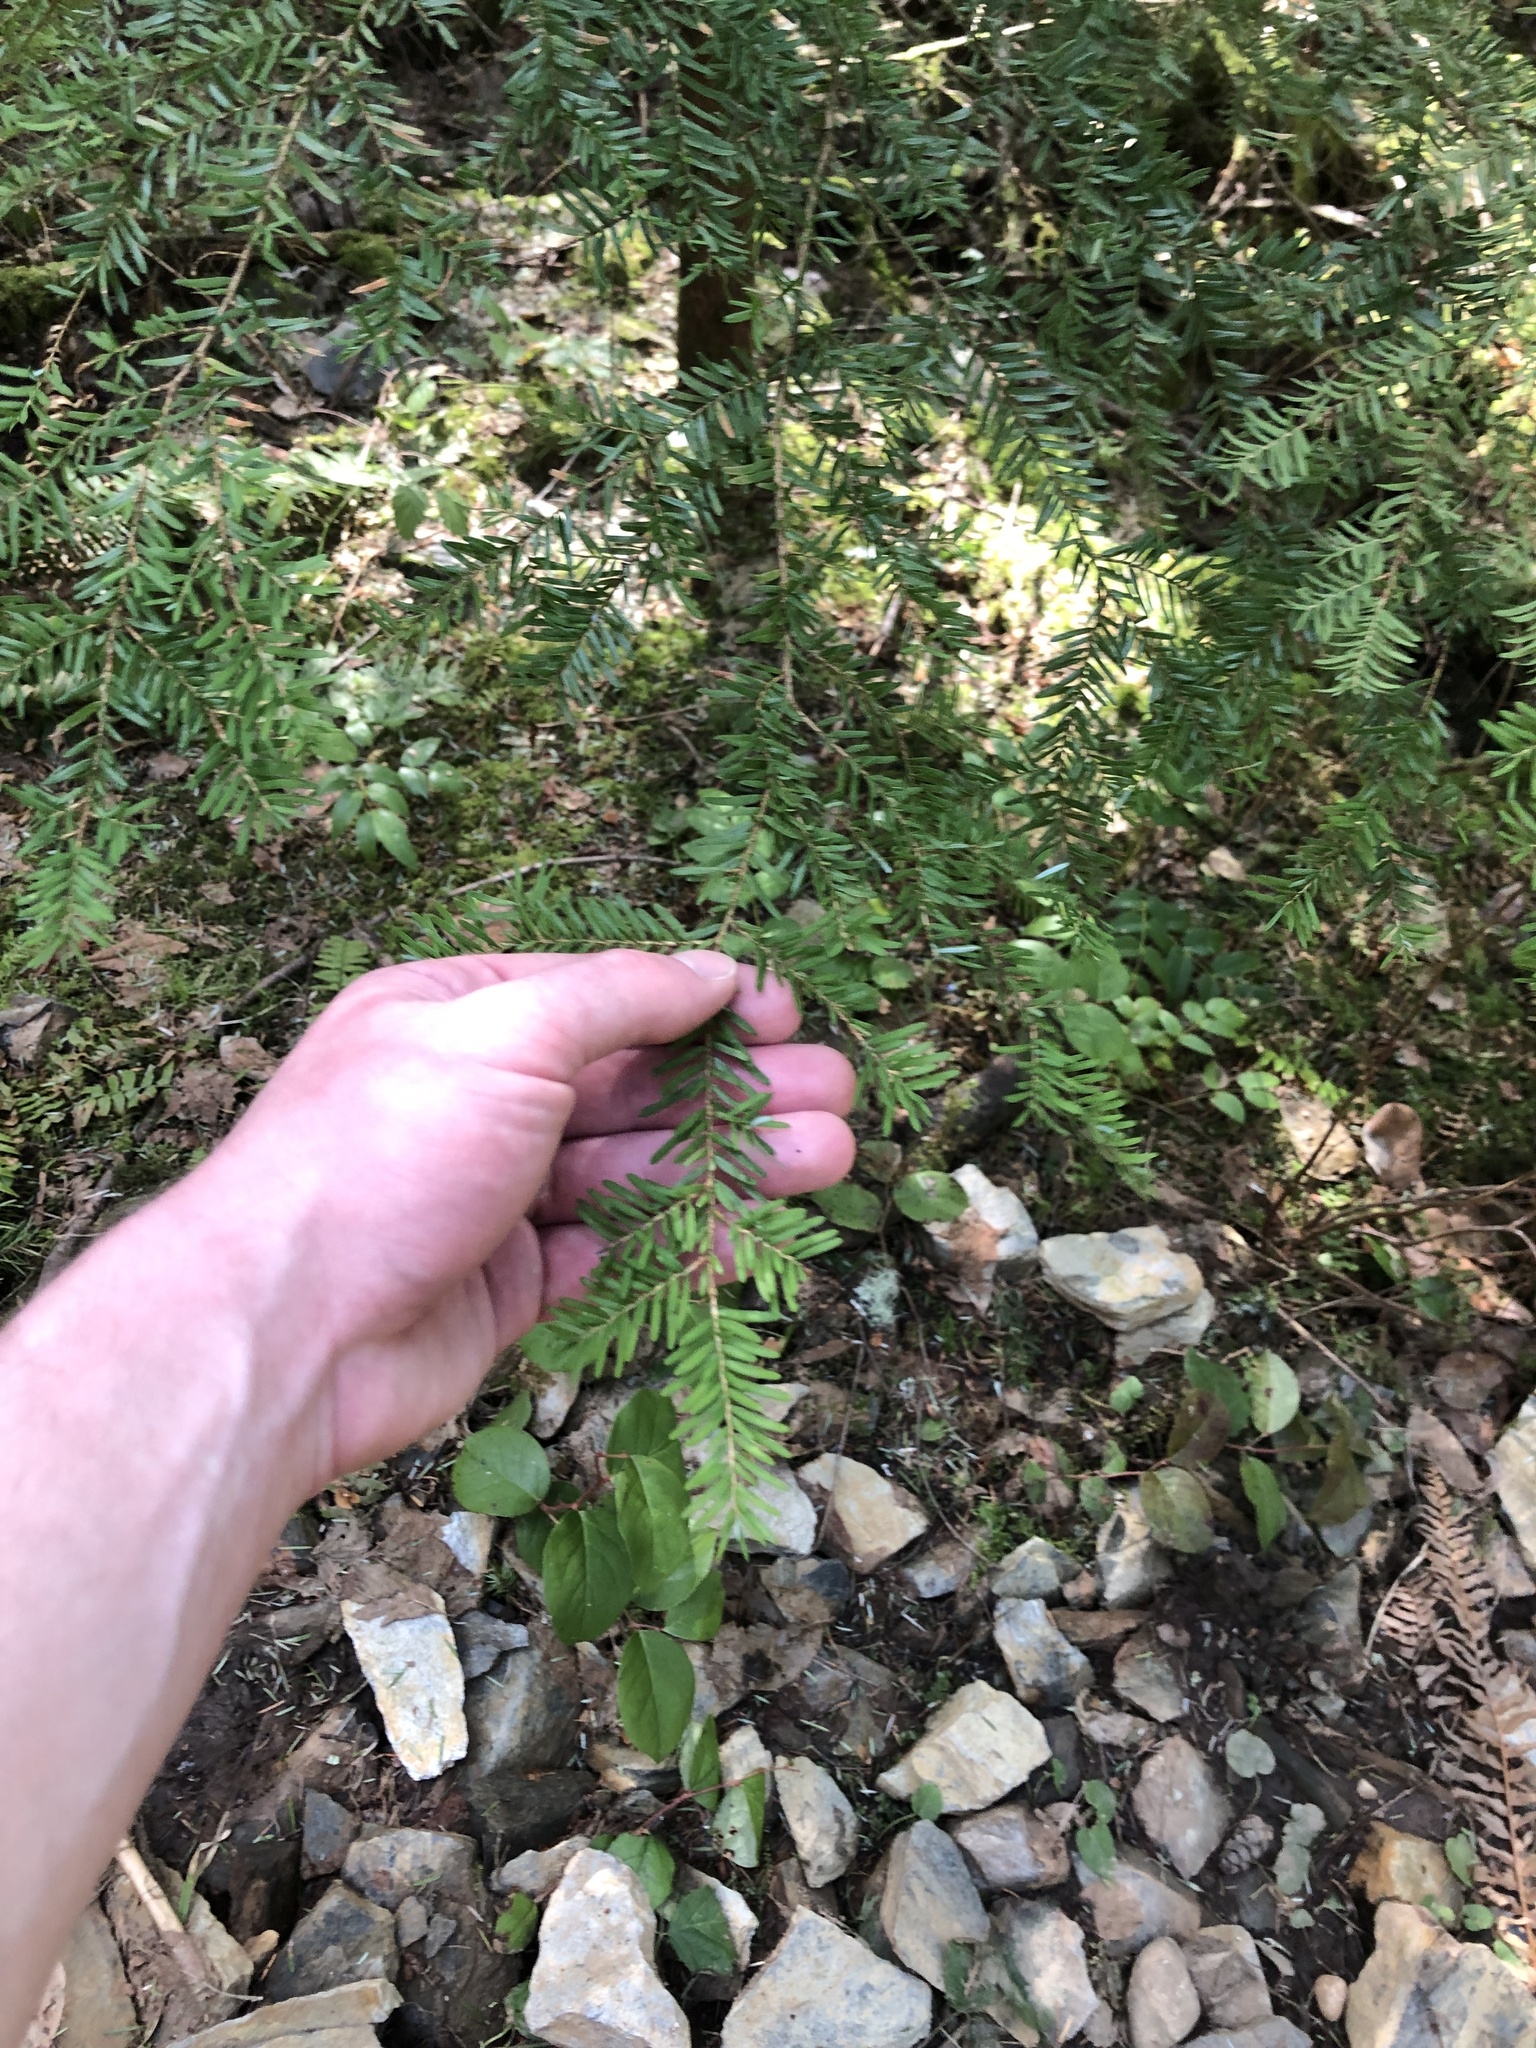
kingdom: Plantae
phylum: Tracheophyta
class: Pinopsida
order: Pinales
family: Pinaceae
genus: Tsuga
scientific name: Tsuga heterophylla
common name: Western hemlock
